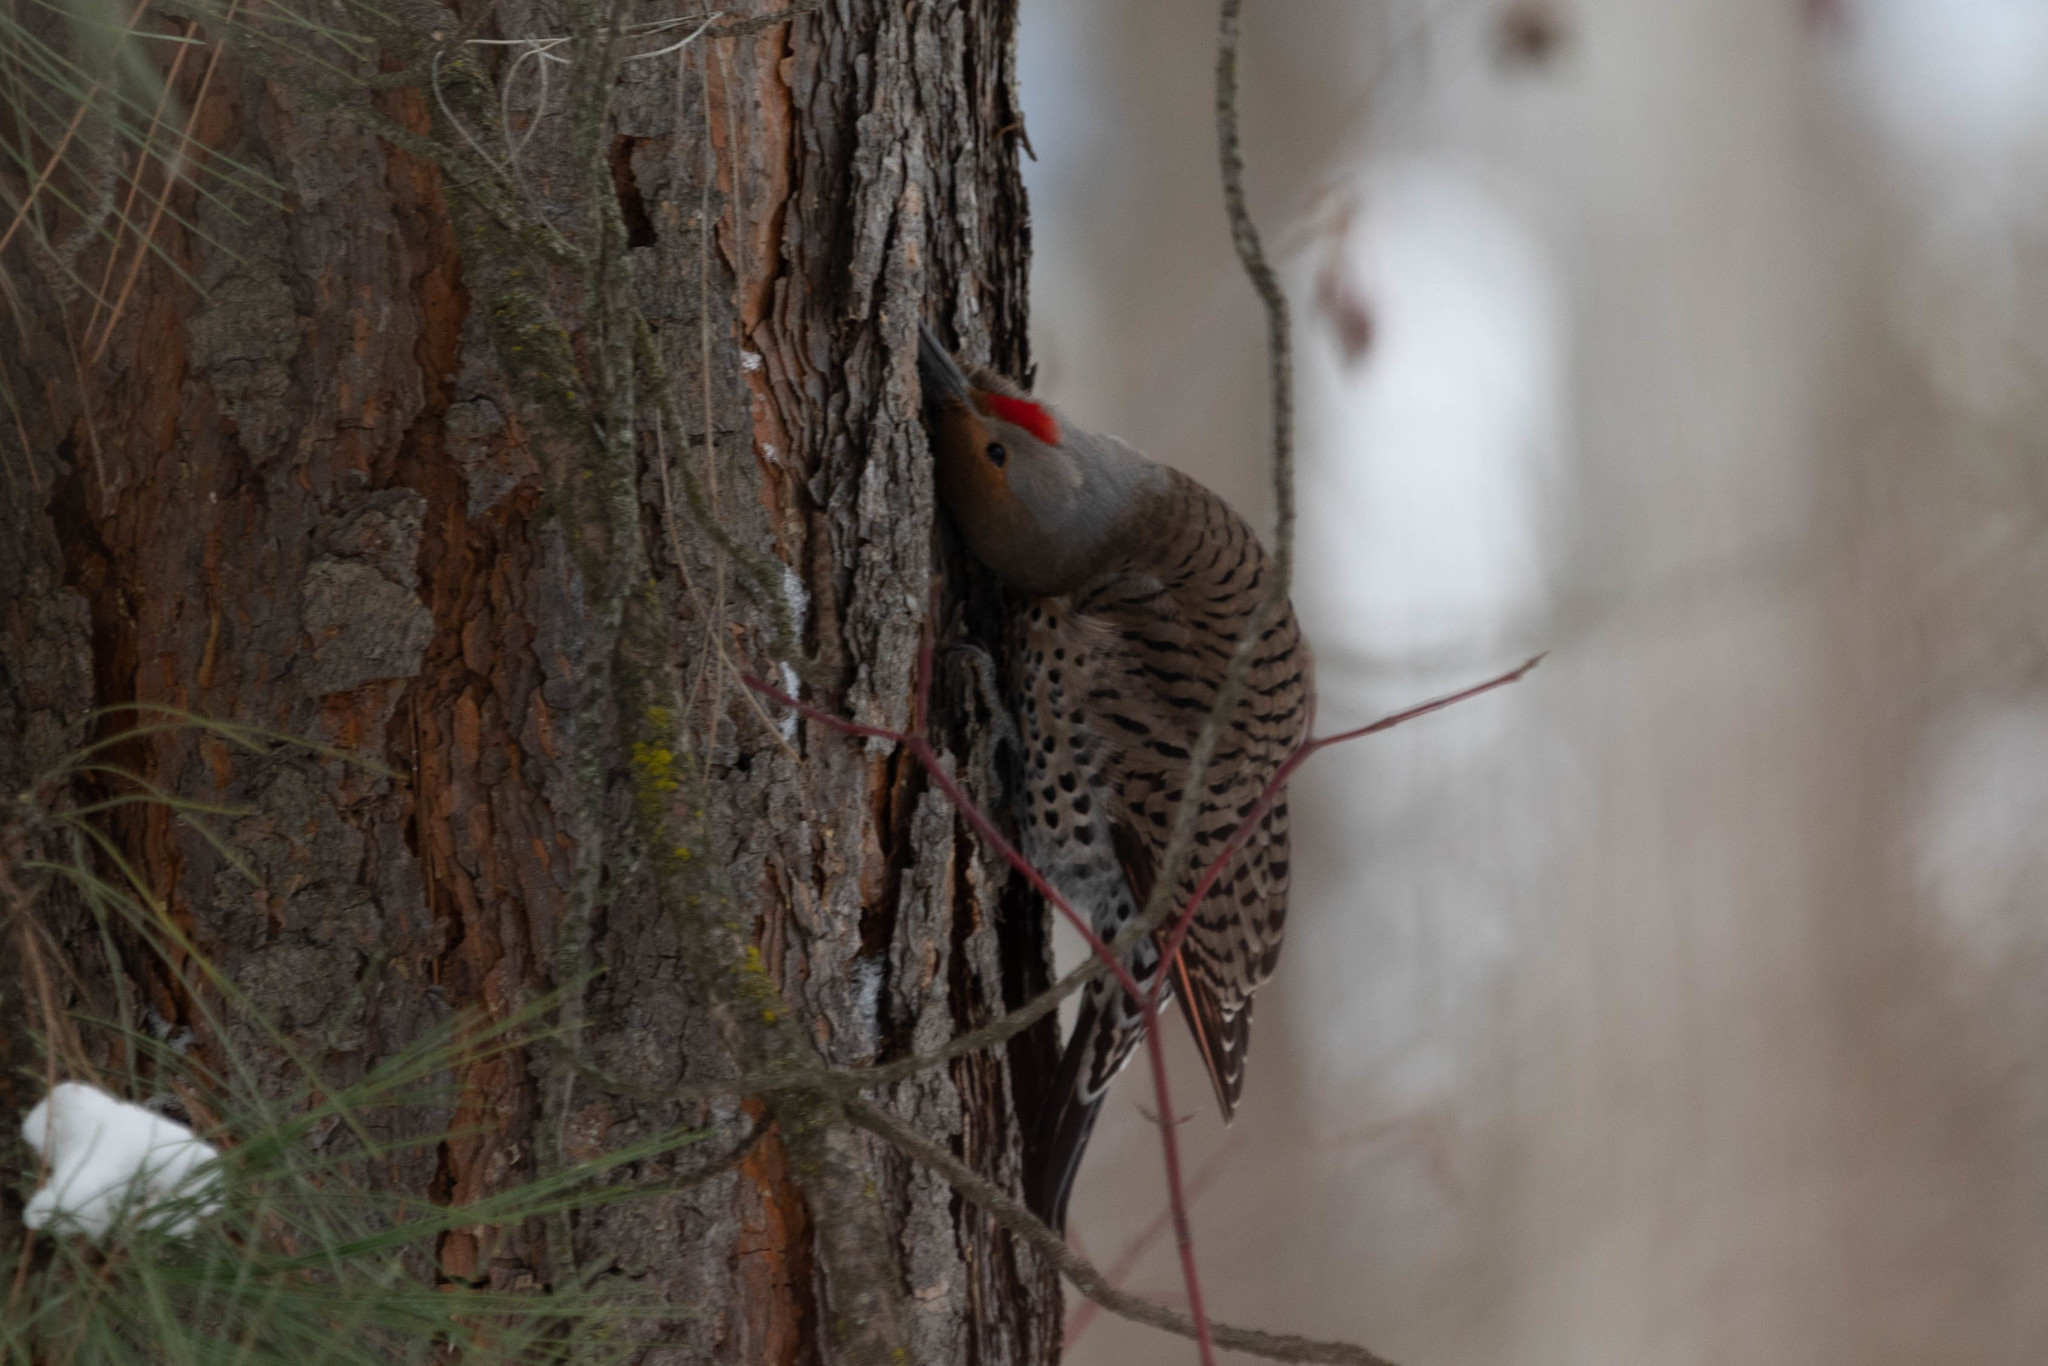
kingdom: Animalia
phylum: Chordata
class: Aves
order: Piciformes
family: Picidae
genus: Colaptes
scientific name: Colaptes auratus
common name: Northern flicker
